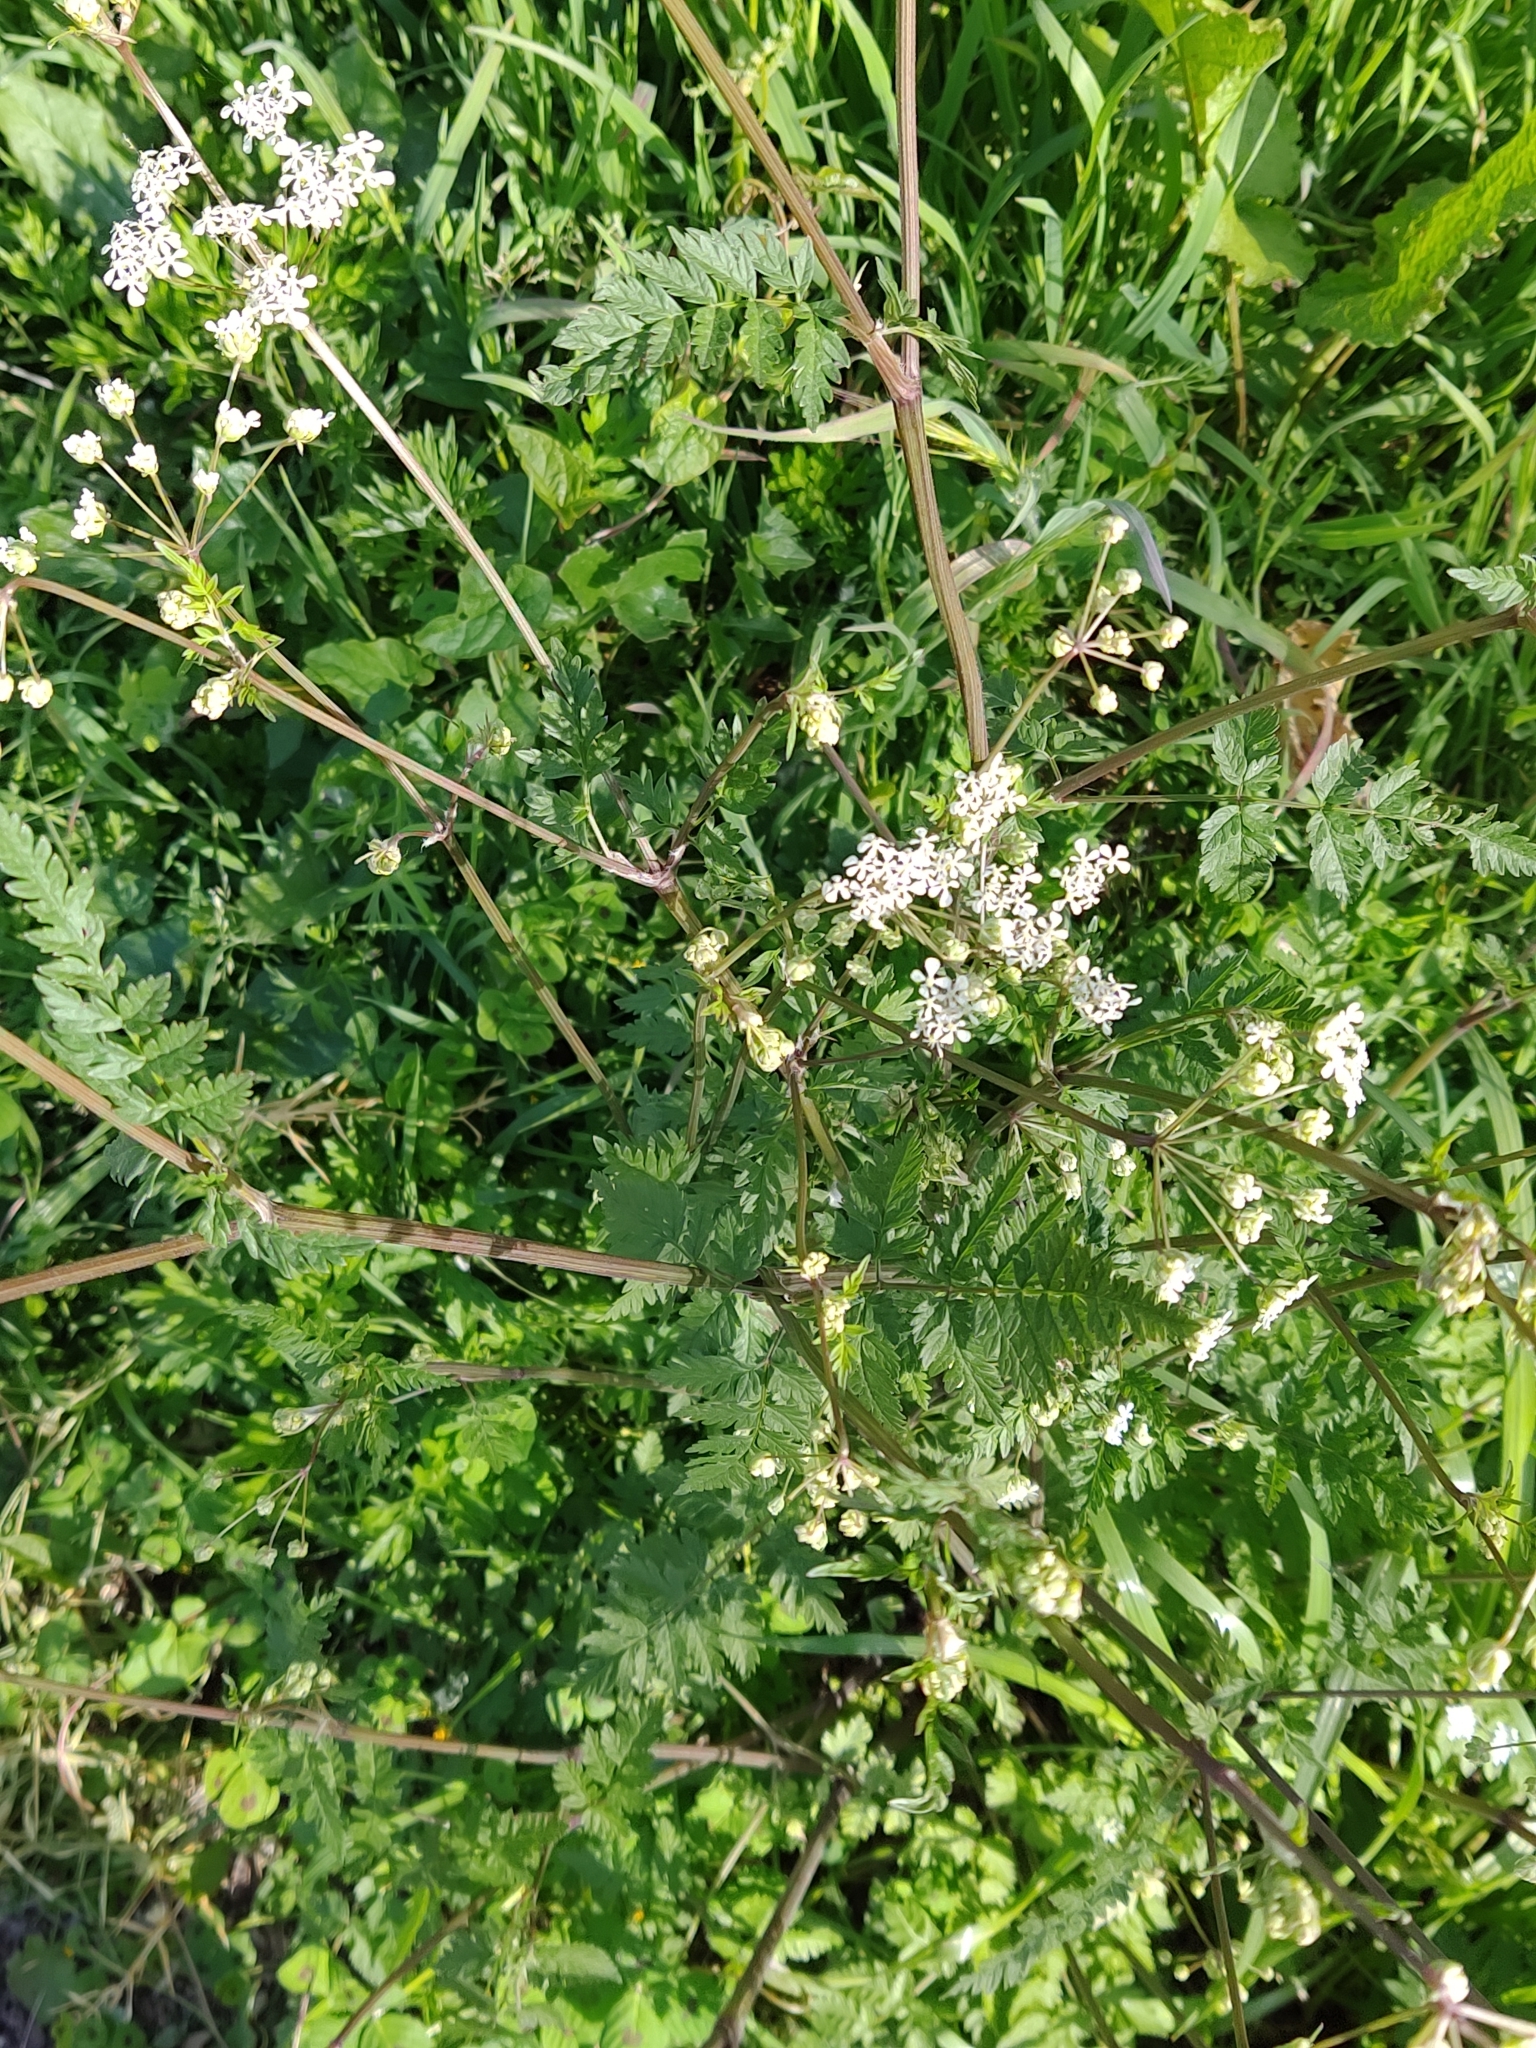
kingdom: Plantae
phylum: Tracheophyta
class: Magnoliopsida
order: Apiales
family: Apiaceae
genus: Anthriscus
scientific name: Anthriscus sylvestris
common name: Cow parsley
